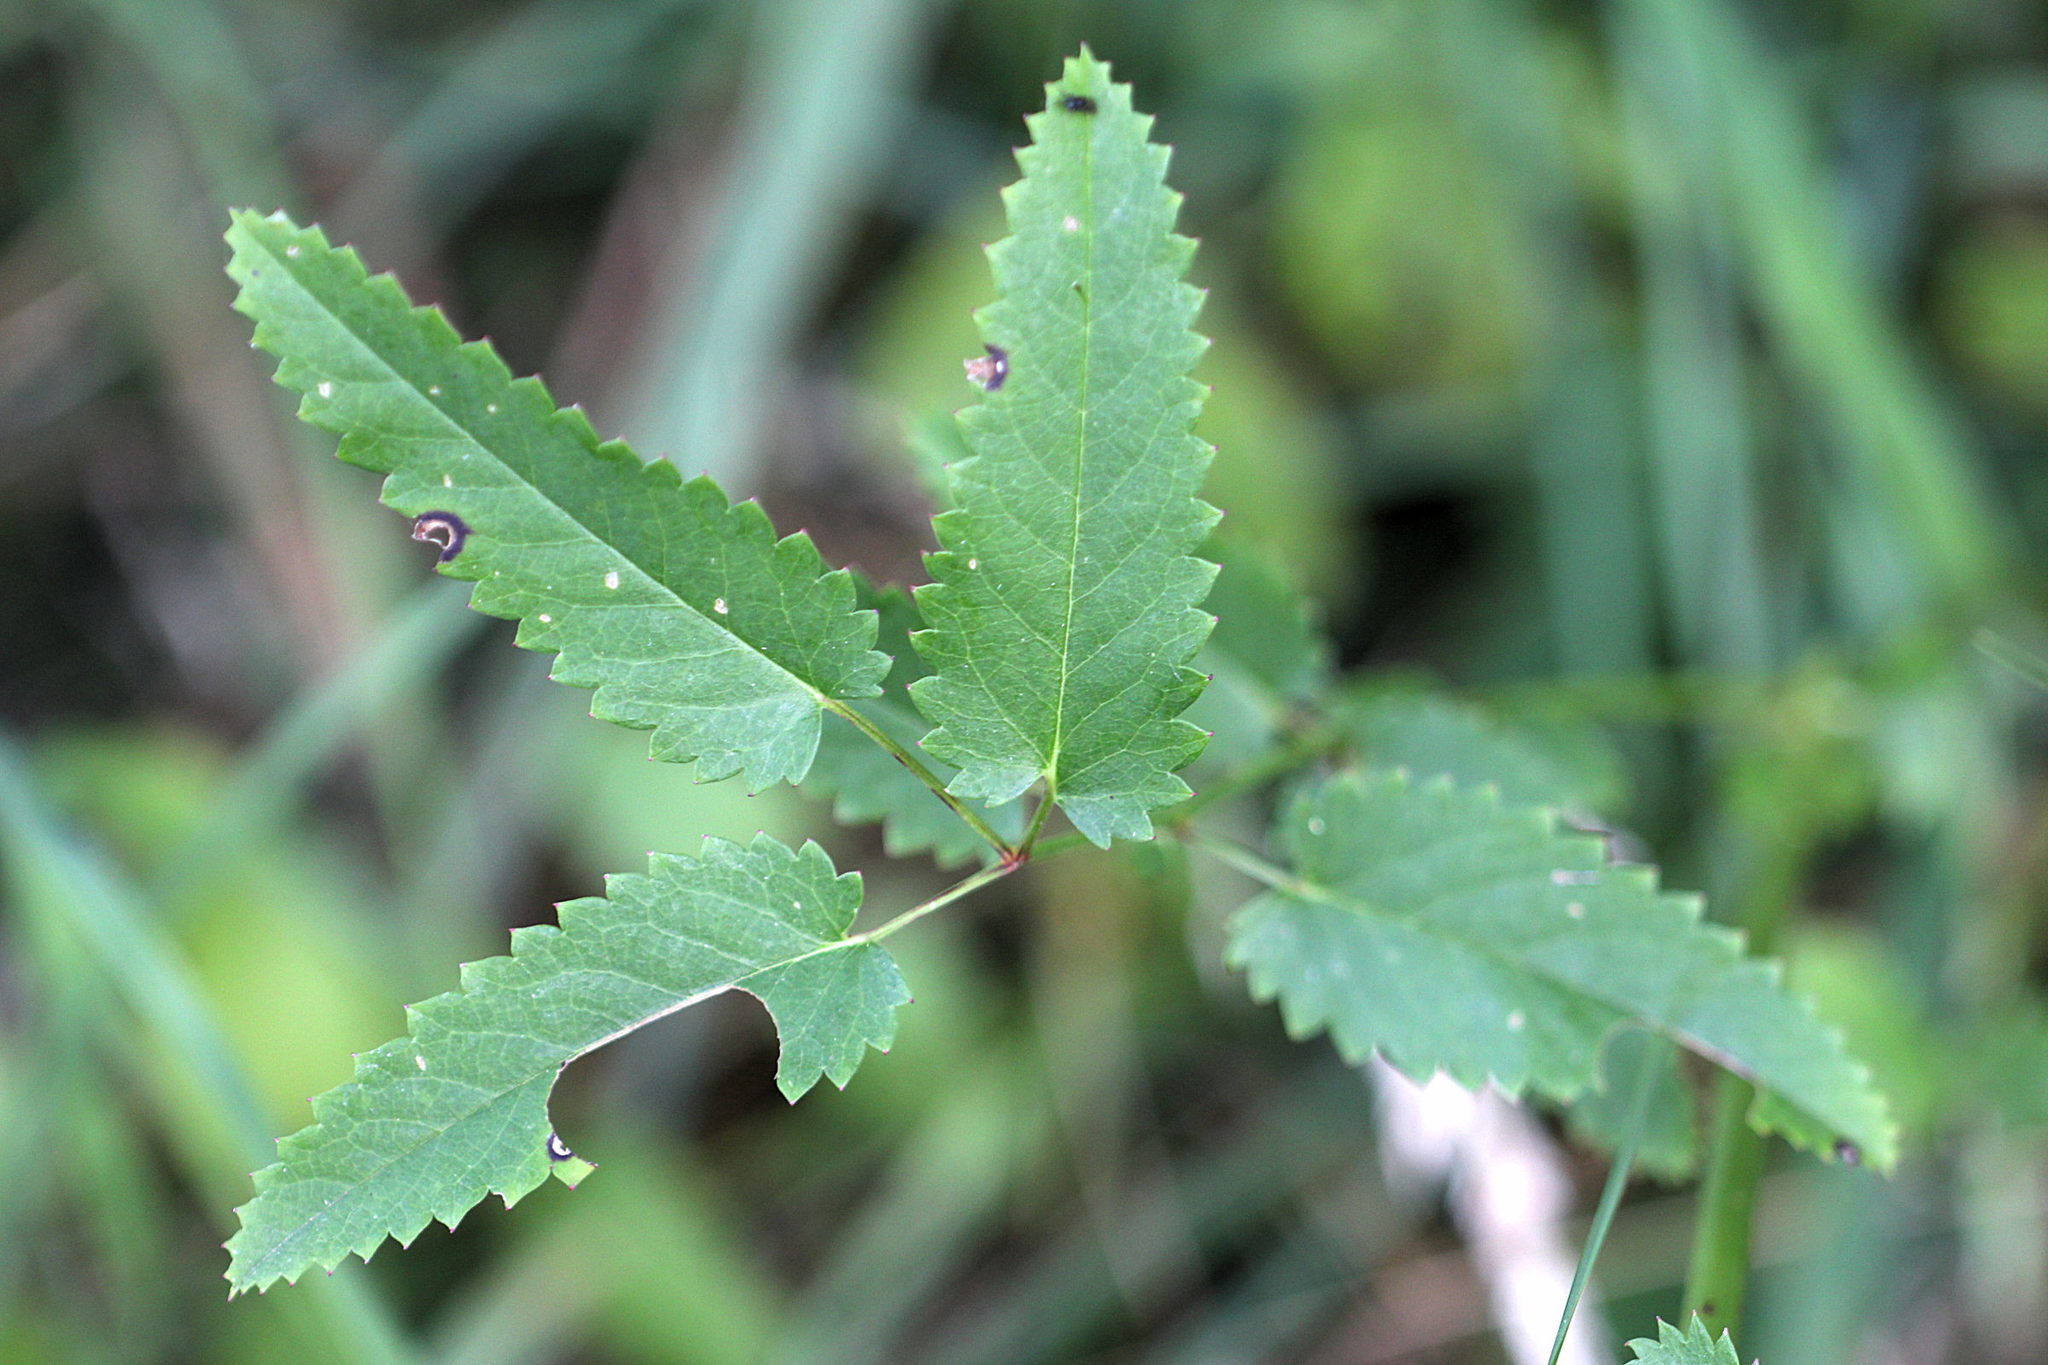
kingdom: Plantae
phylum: Tracheophyta
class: Magnoliopsida
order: Rosales
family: Rosaceae
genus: Sanguisorba
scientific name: Sanguisorba officinalis
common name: Great burnet
